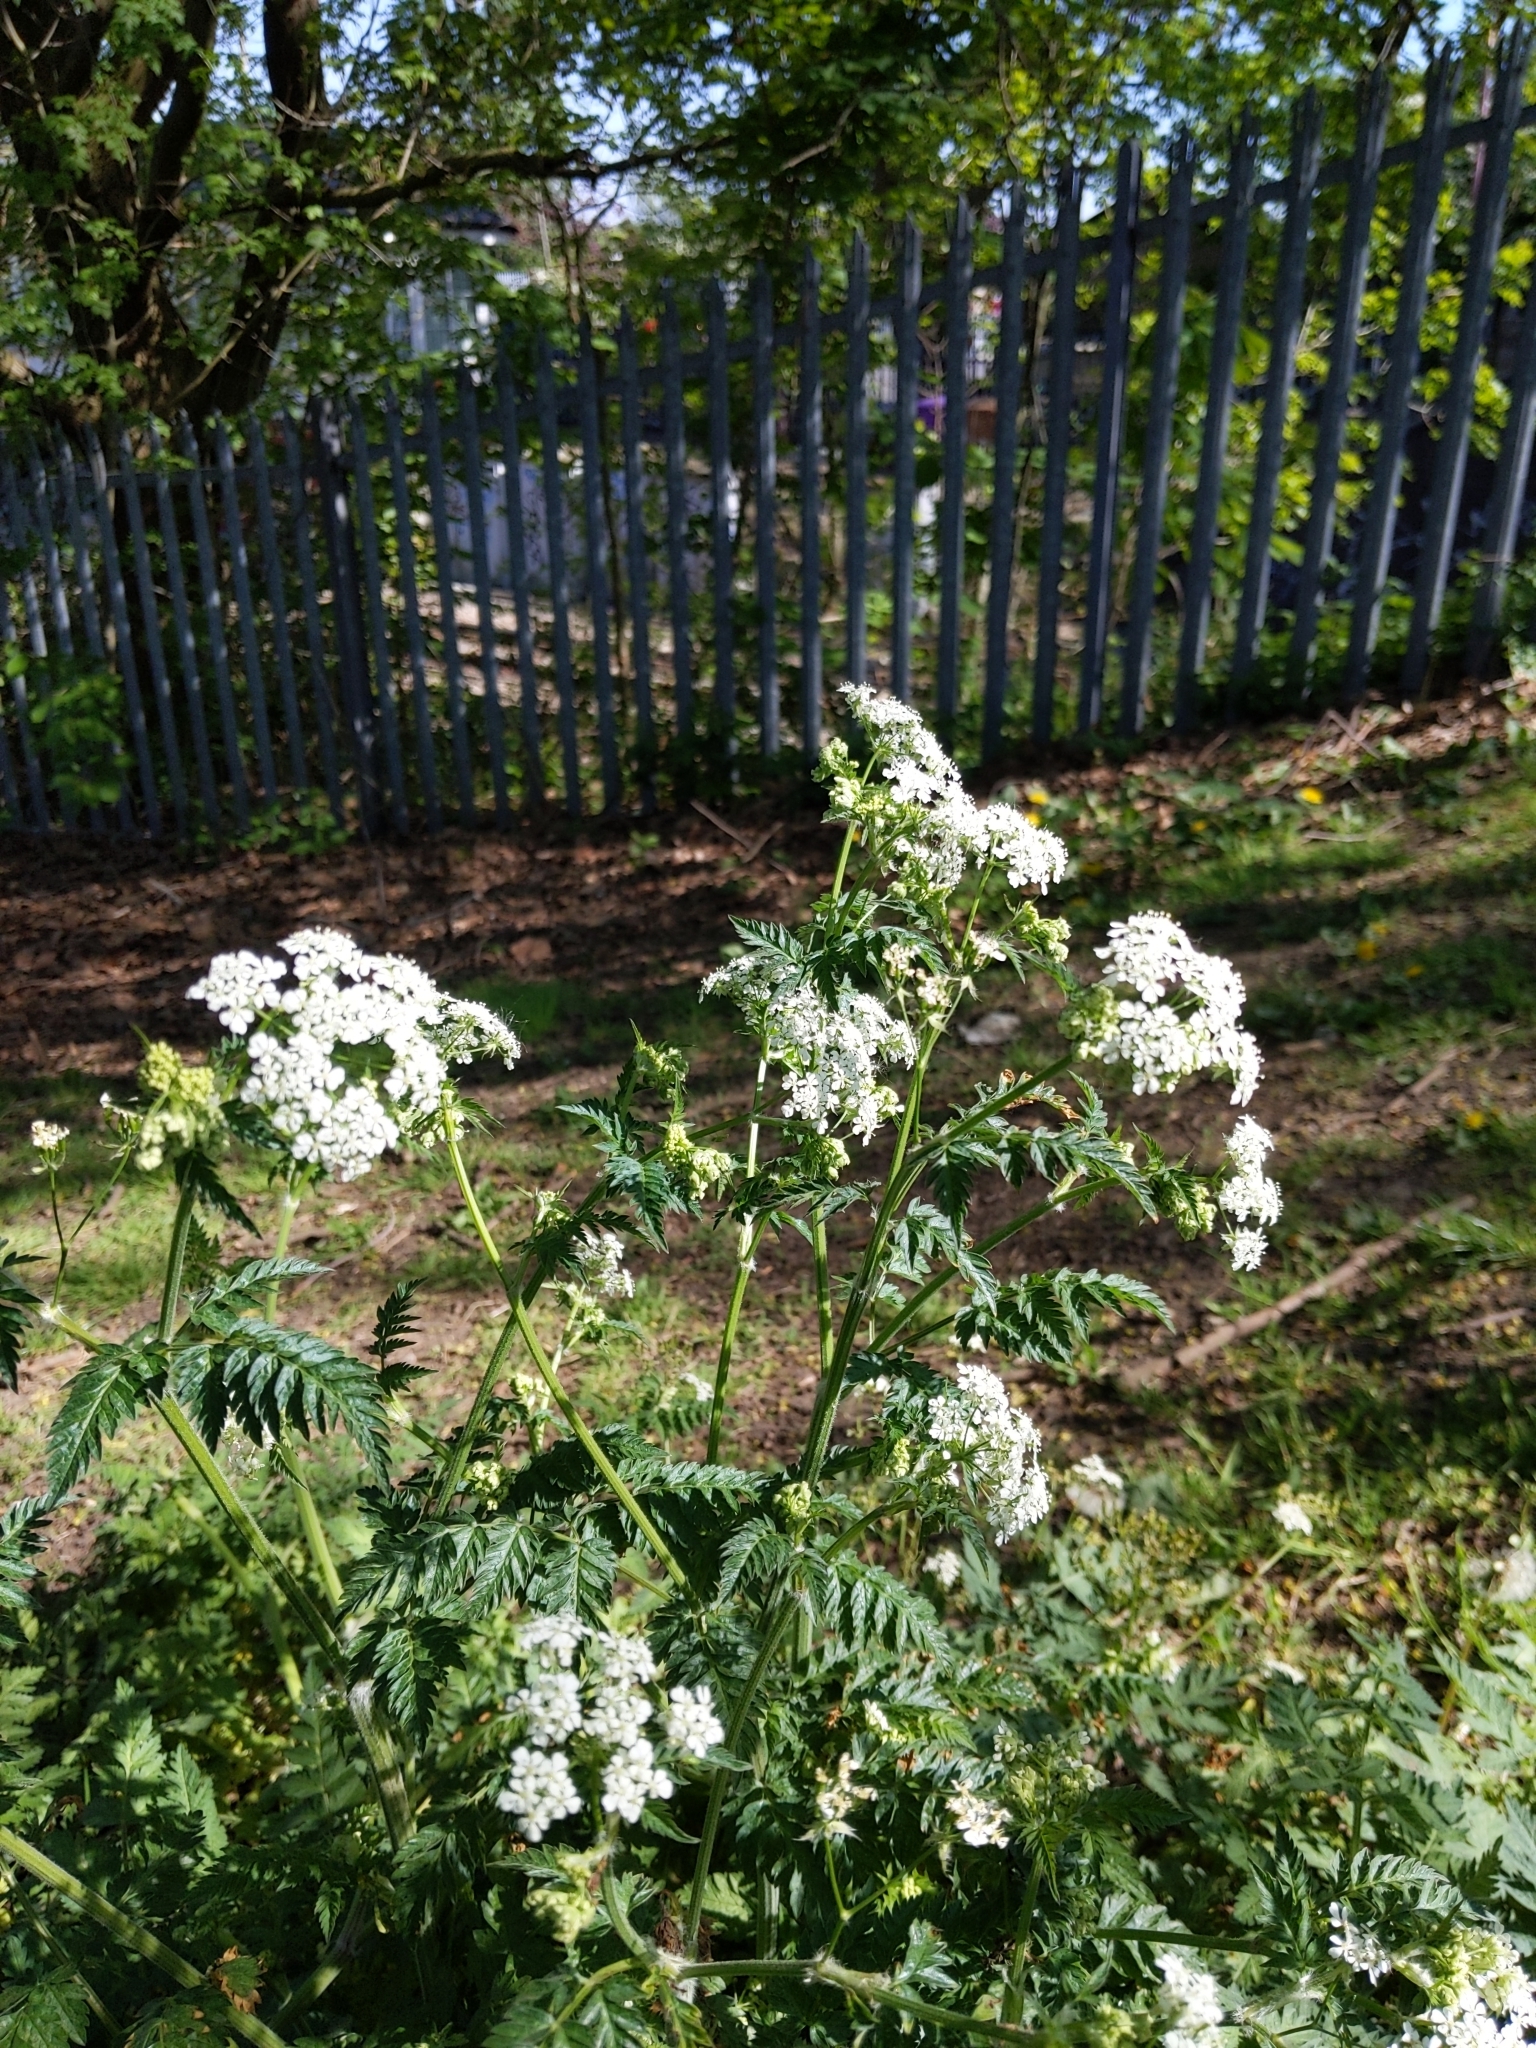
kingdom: Plantae
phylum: Tracheophyta
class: Magnoliopsida
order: Apiales
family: Apiaceae
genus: Anthriscus
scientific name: Anthriscus sylvestris
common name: Cow parsley
